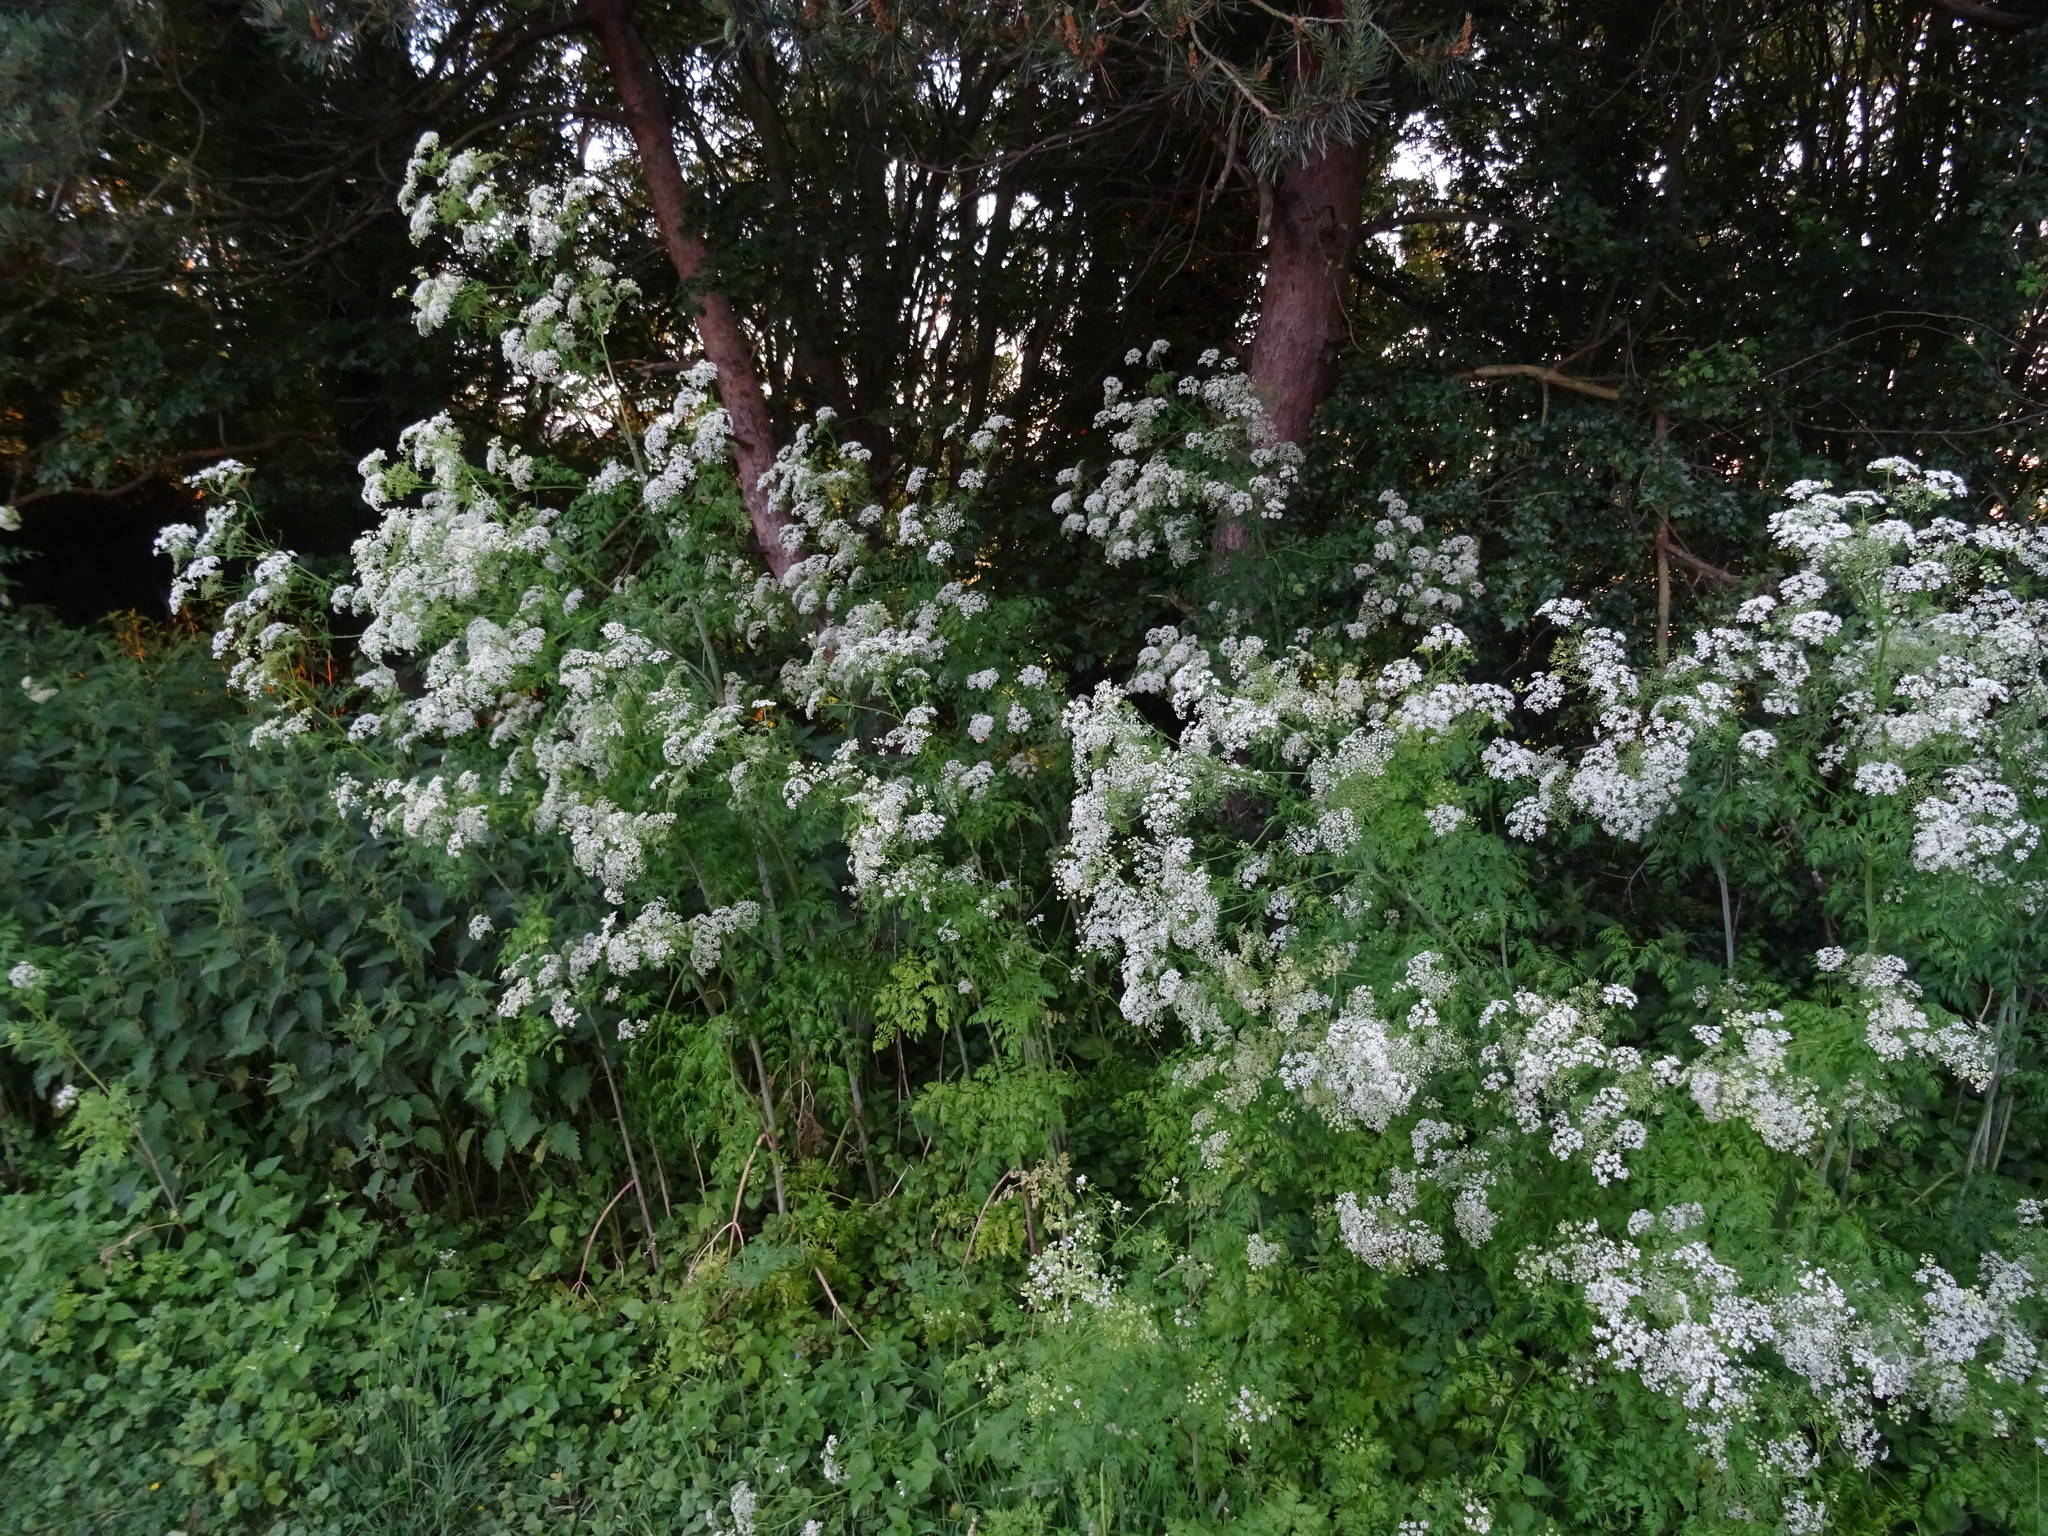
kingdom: Plantae
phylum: Tracheophyta
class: Magnoliopsida
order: Apiales
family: Apiaceae
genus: Conium
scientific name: Conium maculatum
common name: Hemlock
